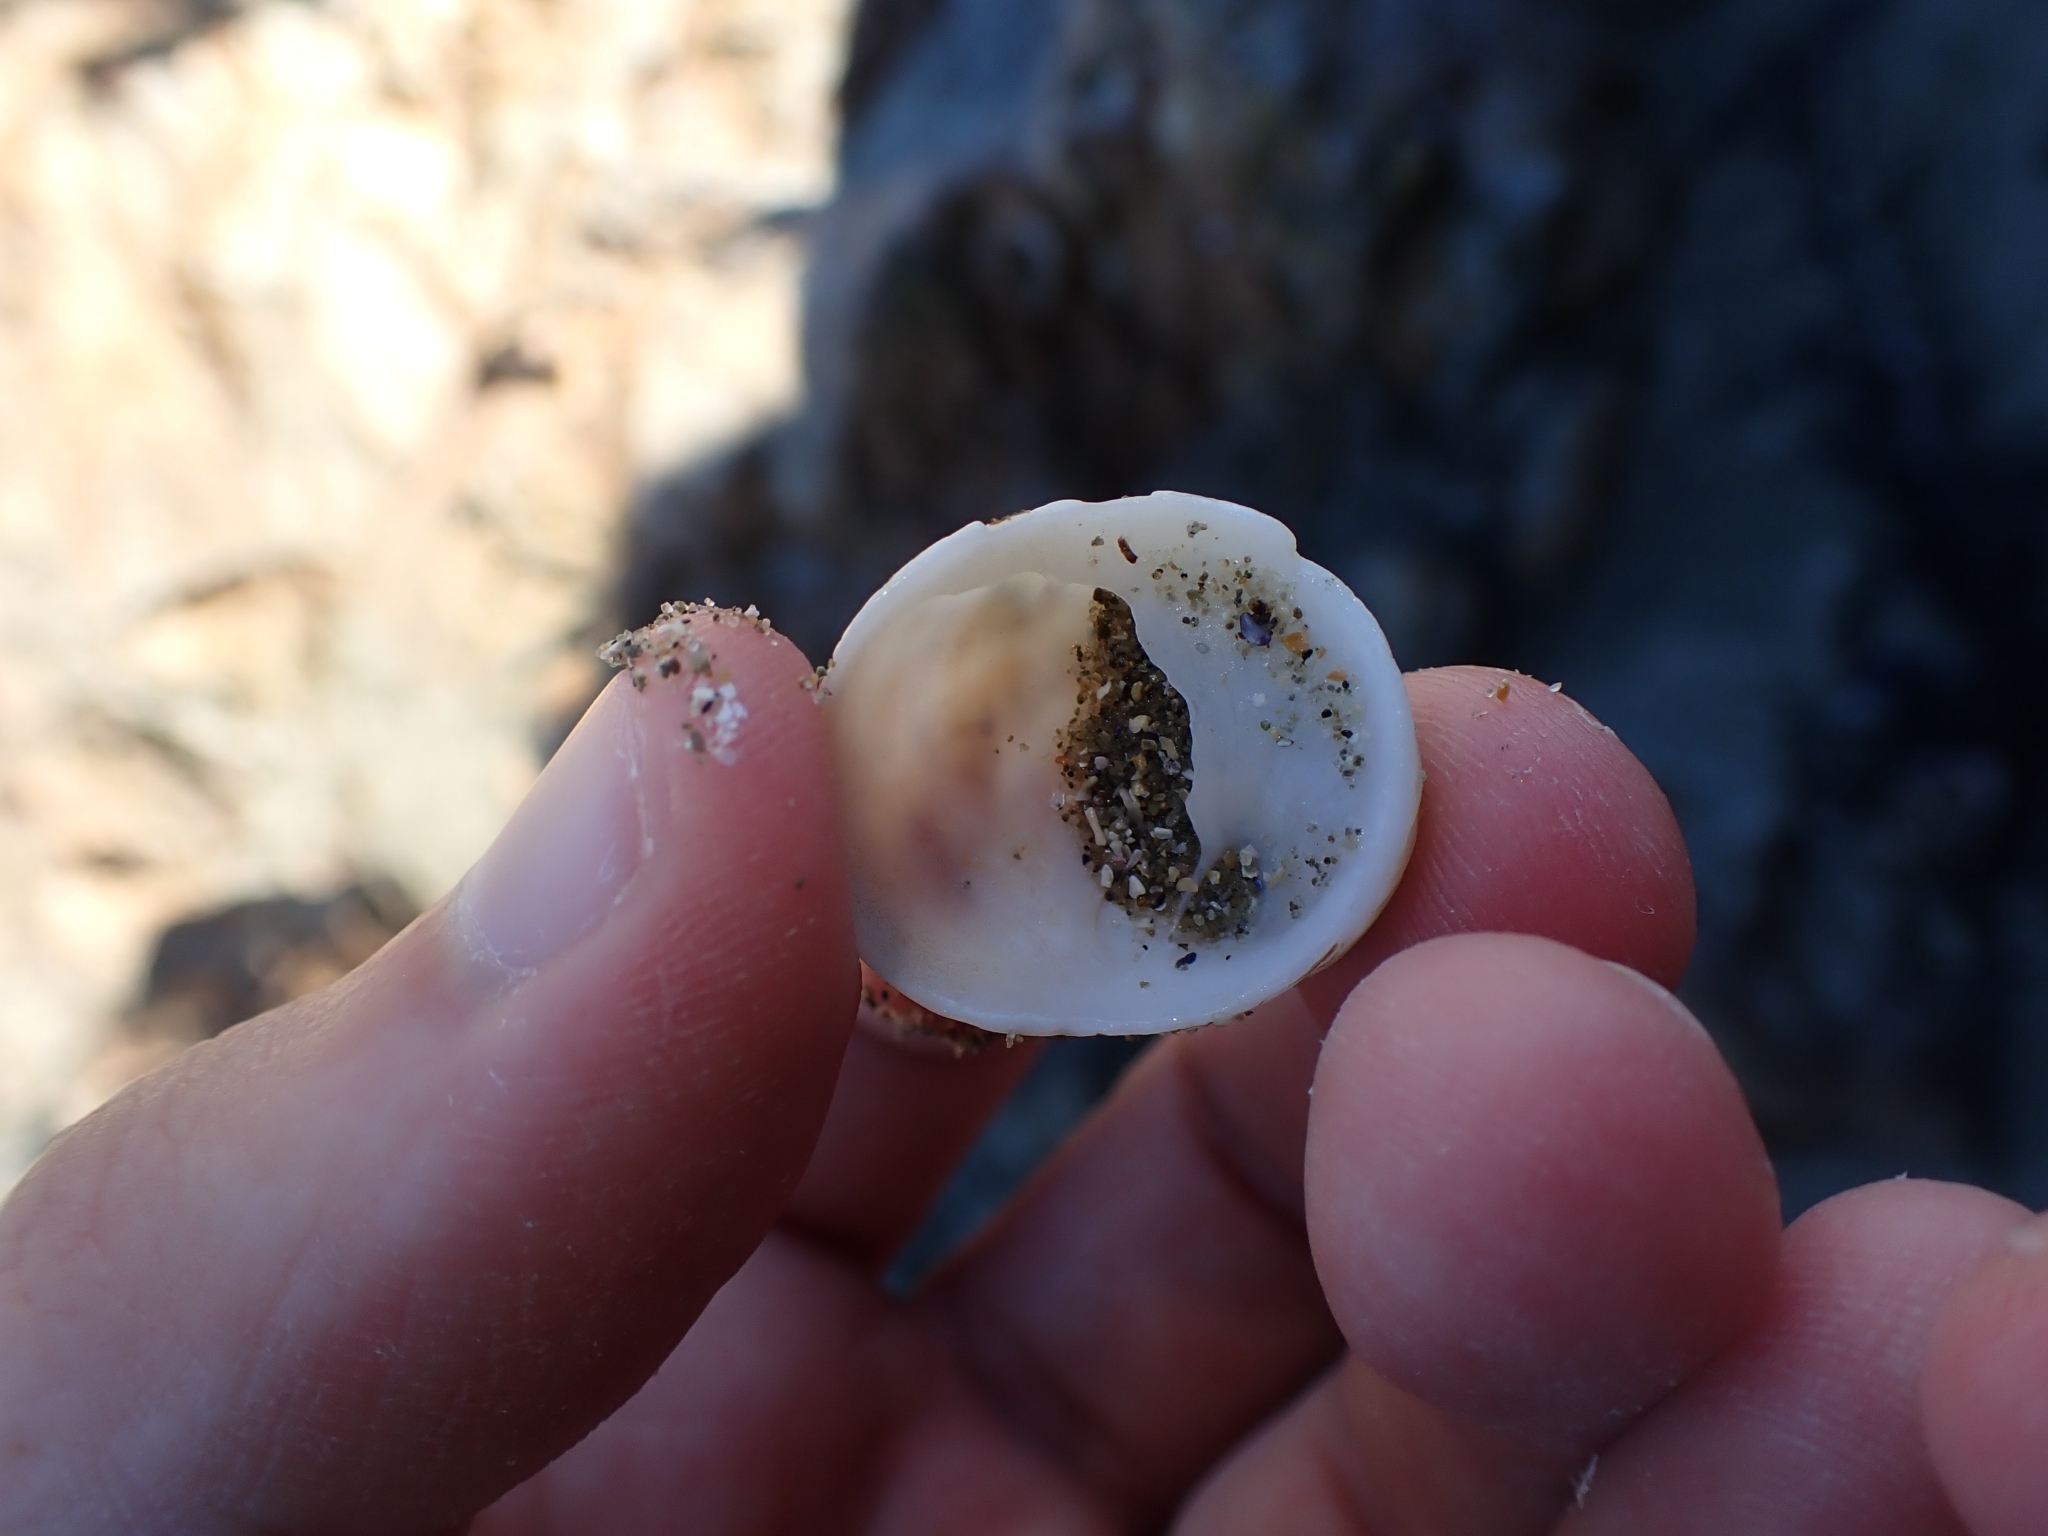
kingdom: Animalia
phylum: Mollusca
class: Gastropoda
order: Littorinimorpha
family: Calyptraeidae
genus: Sigapatella
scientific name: Sigapatella novaezelandiae
